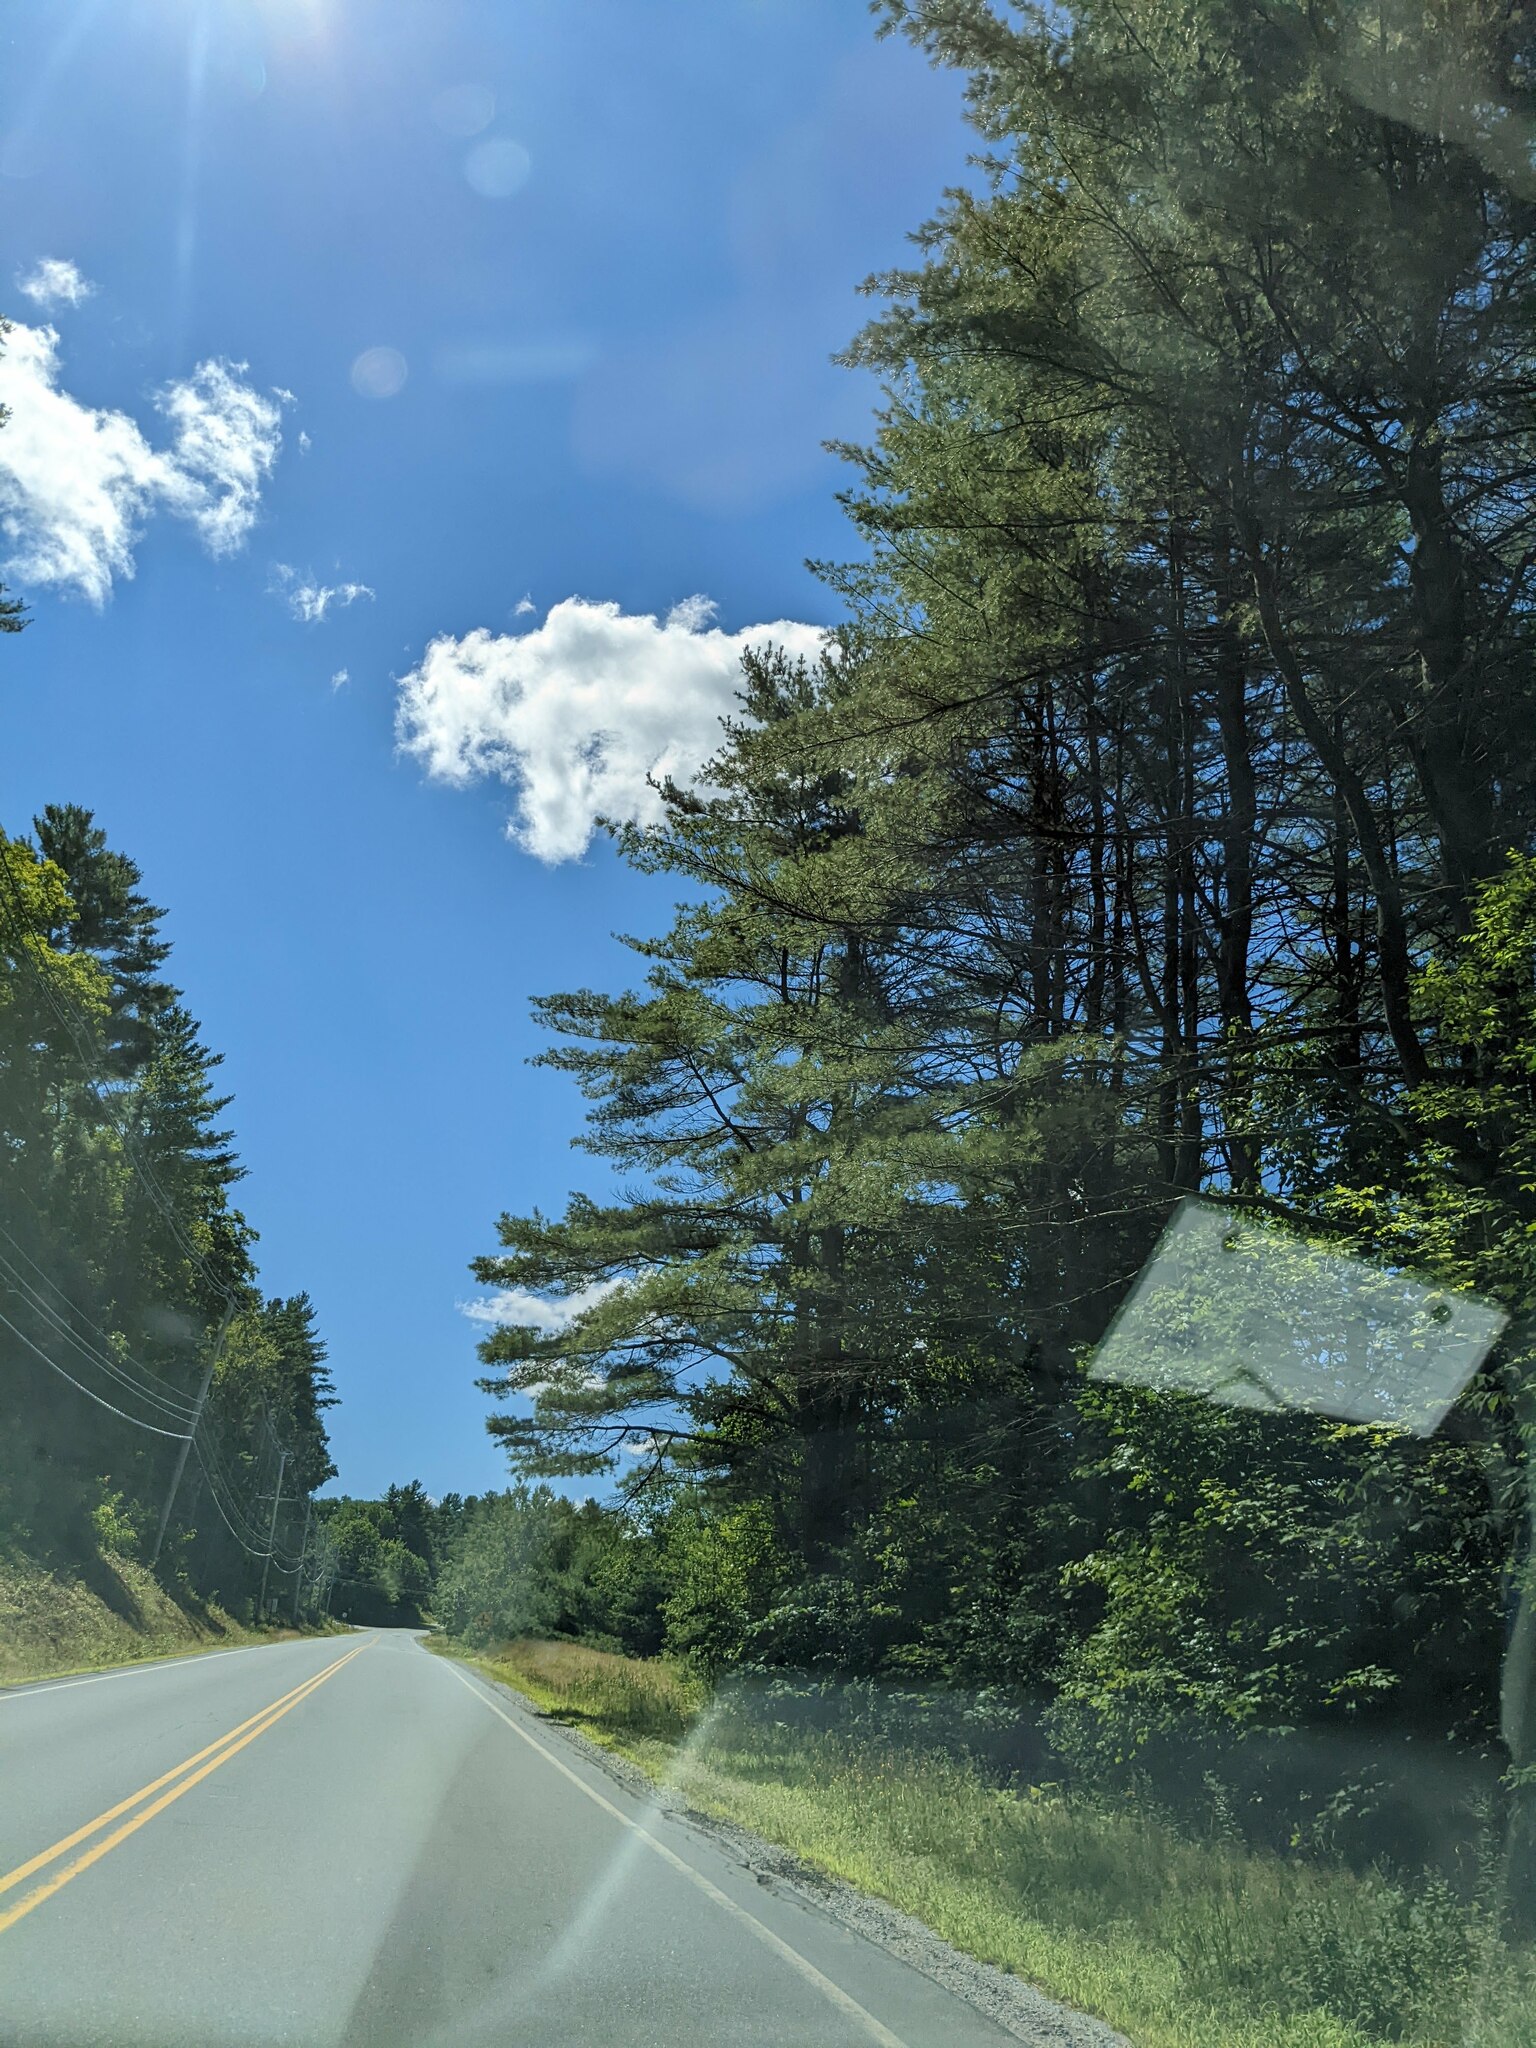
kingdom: Plantae
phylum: Tracheophyta
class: Pinopsida
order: Pinales
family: Pinaceae
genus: Pinus
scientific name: Pinus strobus
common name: Weymouth pine
